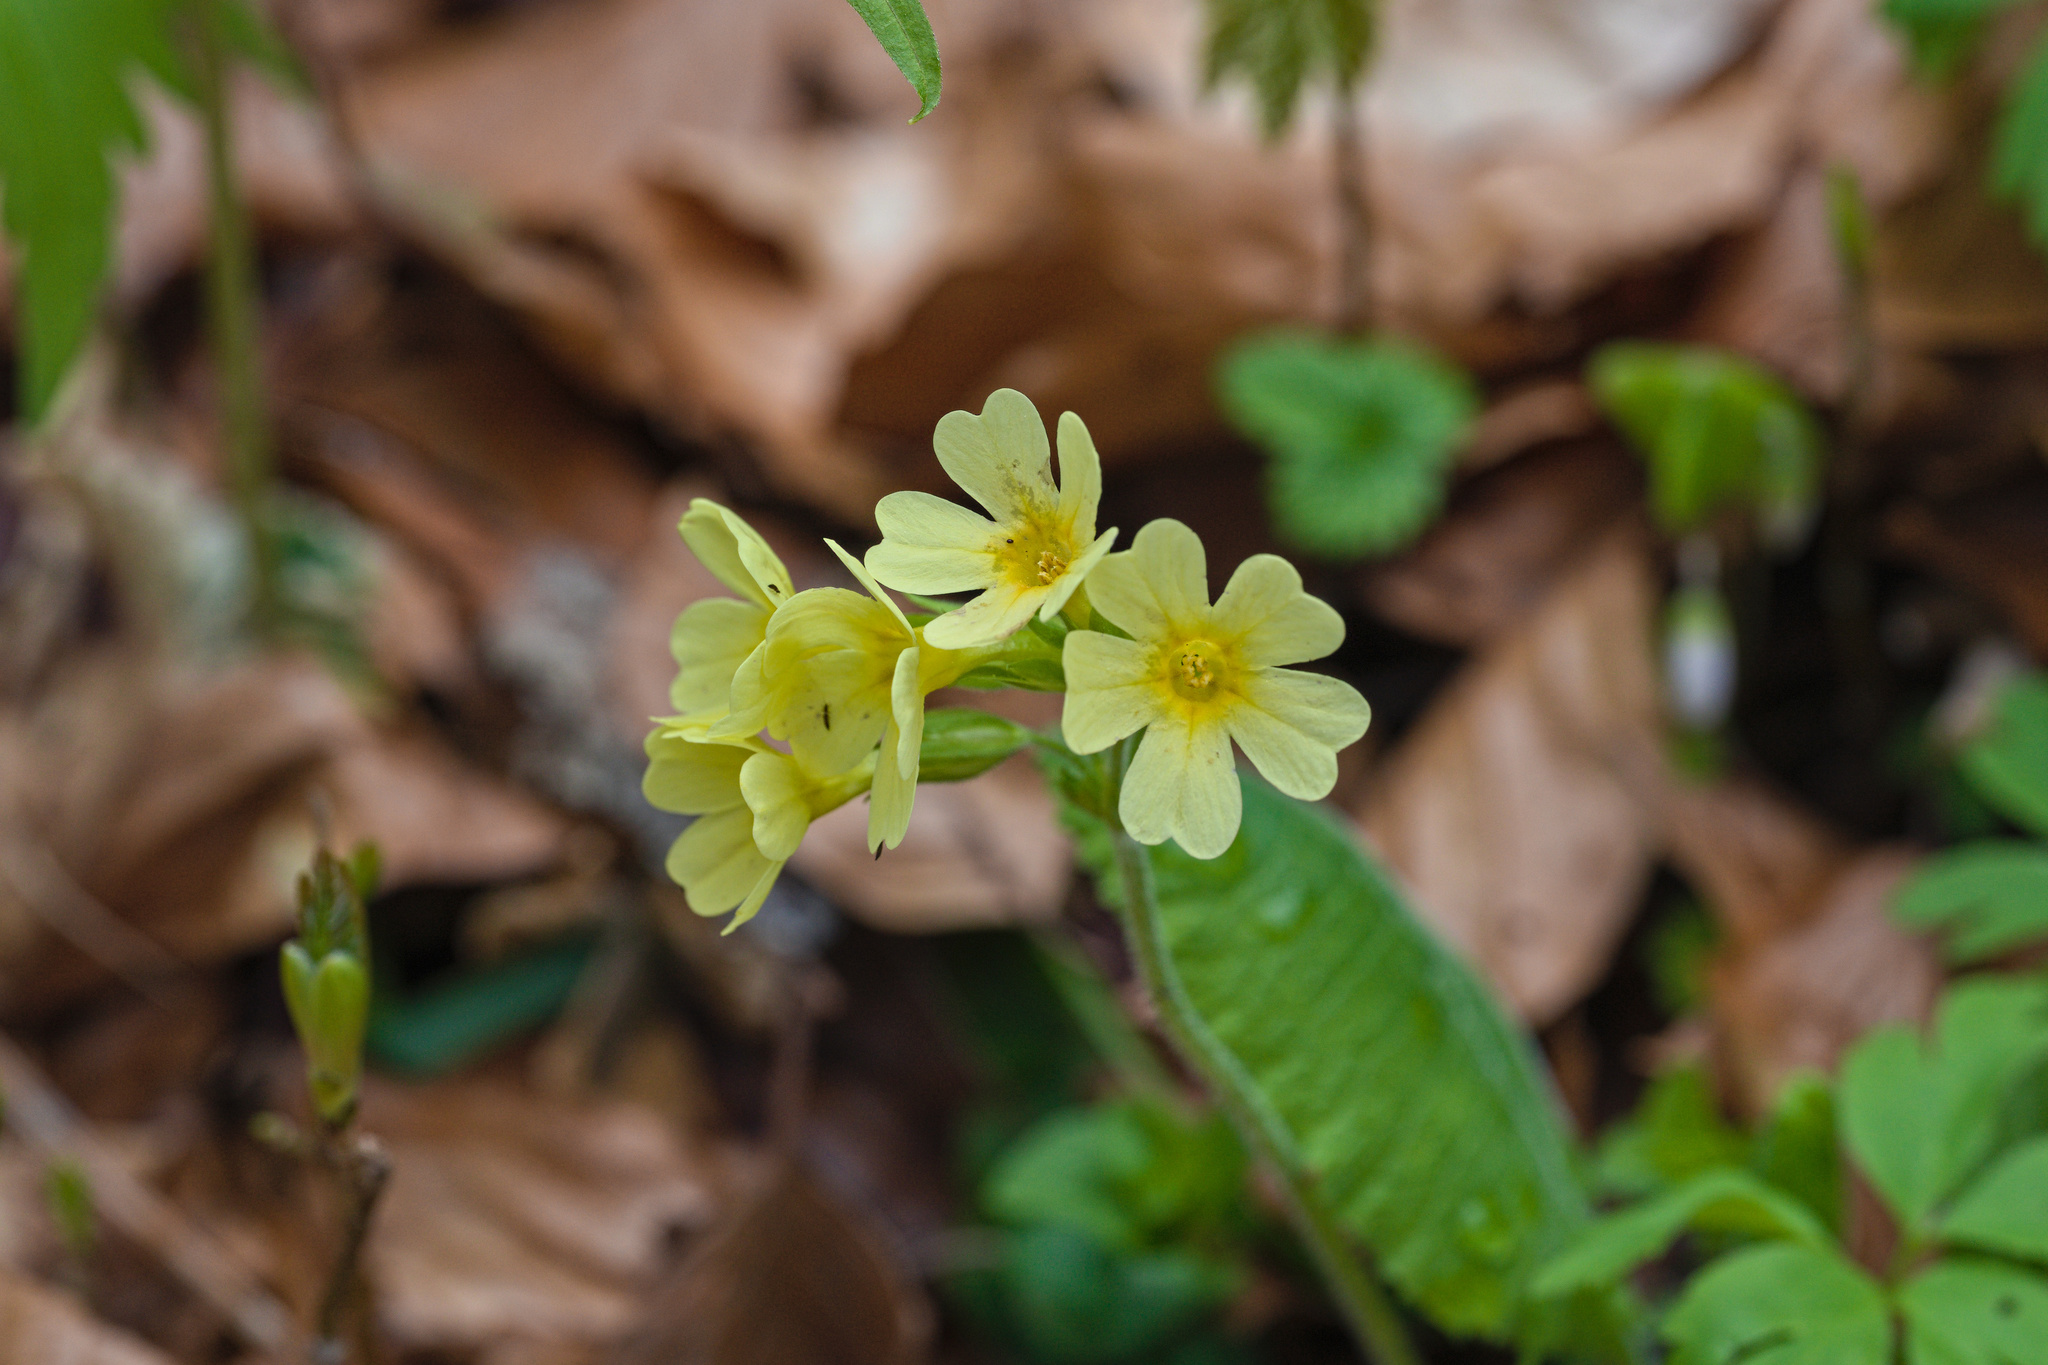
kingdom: Plantae
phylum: Tracheophyta
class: Magnoliopsida
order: Ericales
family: Primulaceae
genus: Primula
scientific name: Primula elatior
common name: Oxlip
